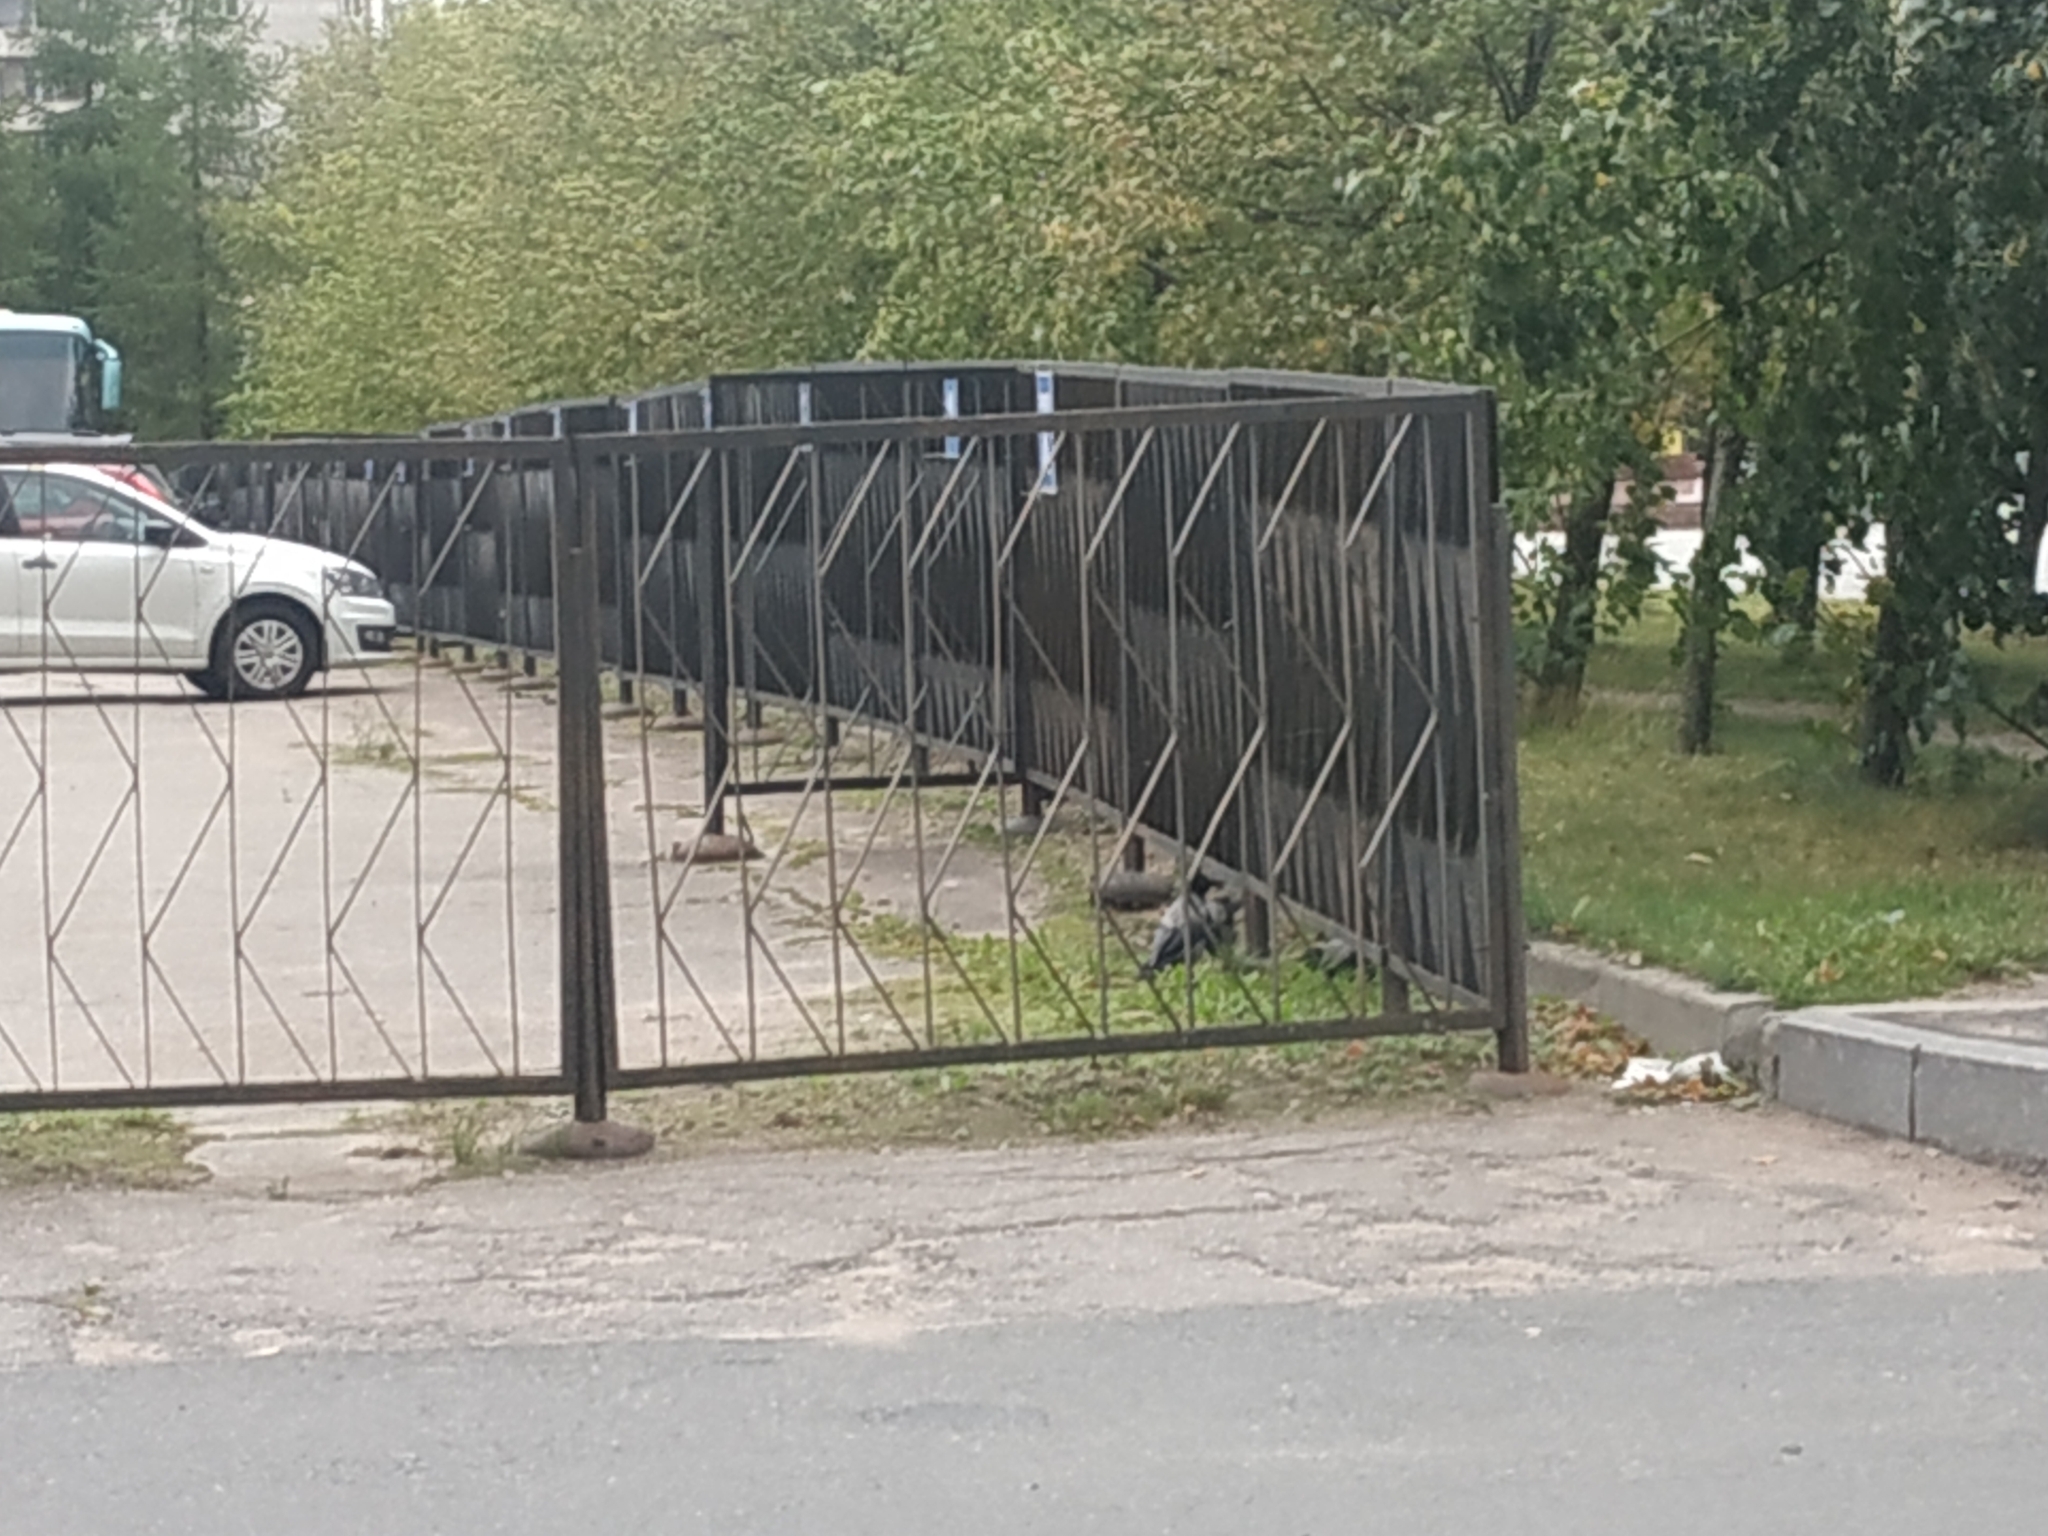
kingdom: Animalia
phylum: Chordata
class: Aves
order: Passeriformes
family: Corvidae
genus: Corvus
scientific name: Corvus cornix
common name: Hooded crow
